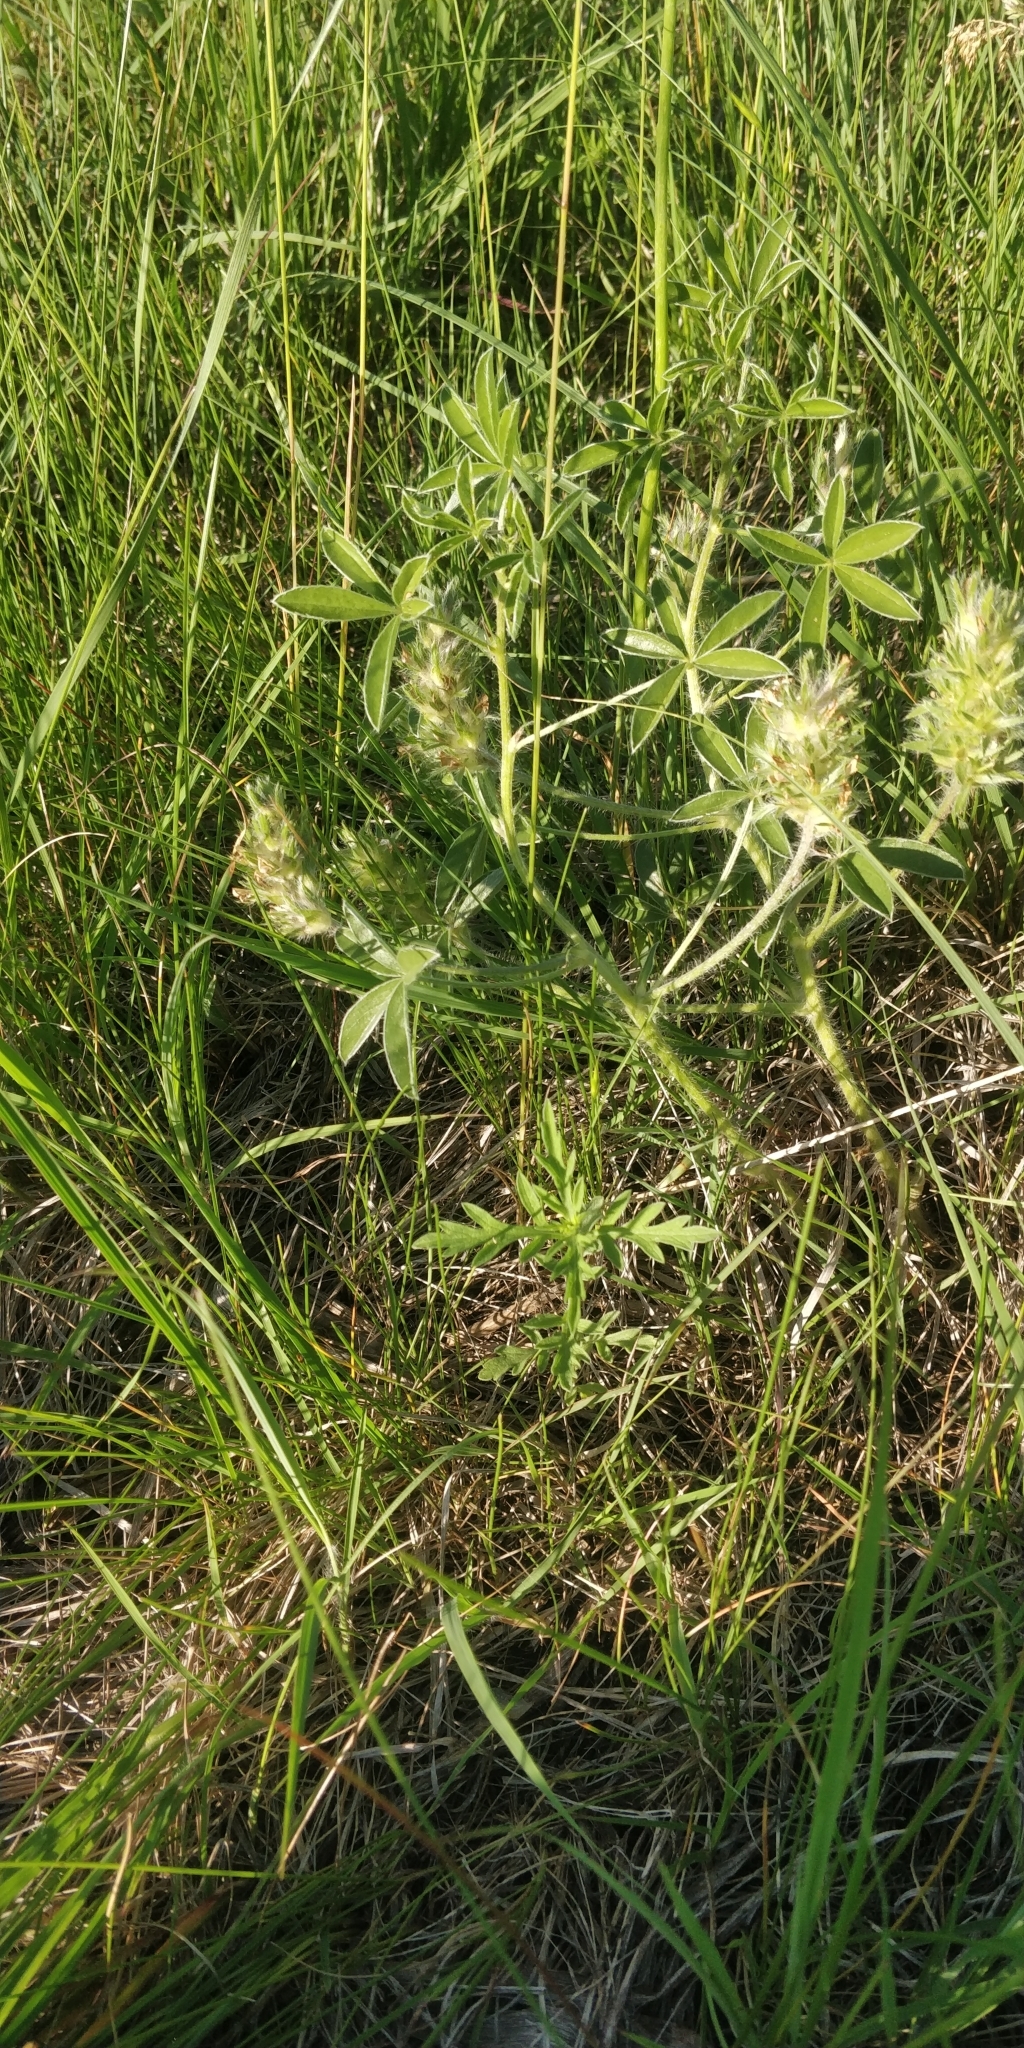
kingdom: Plantae
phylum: Tracheophyta
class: Magnoliopsida
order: Fabales
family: Fabaceae
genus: Pediomelum
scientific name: Pediomelum esculentum
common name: Indian-turnip
